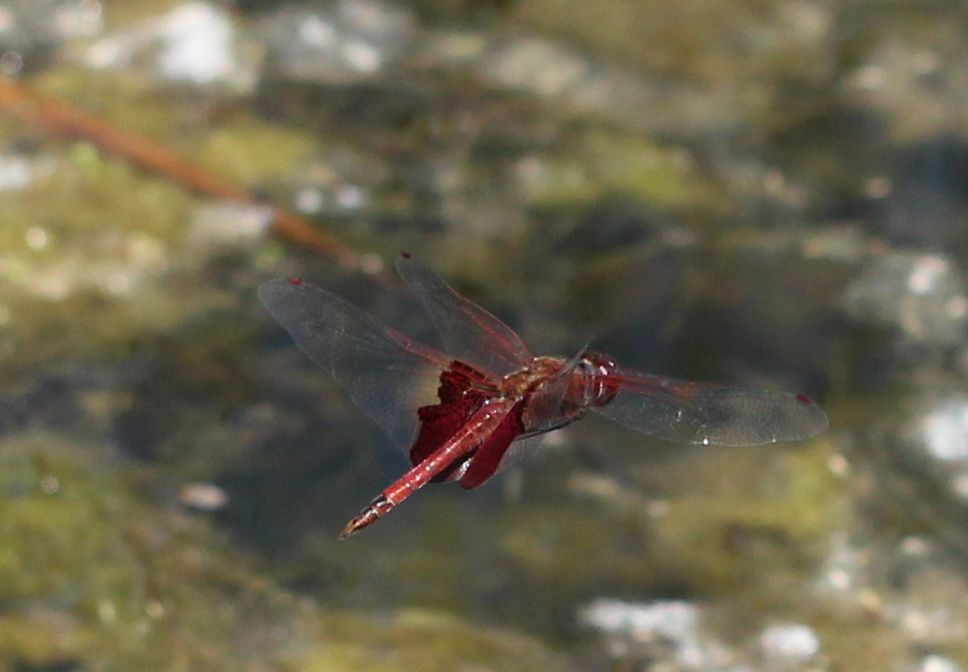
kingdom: Animalia
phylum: Arthropoda
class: Insecta
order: Odonata
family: Libellulidae
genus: Tramea
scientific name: Tramea onusta
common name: Red saddlebags
